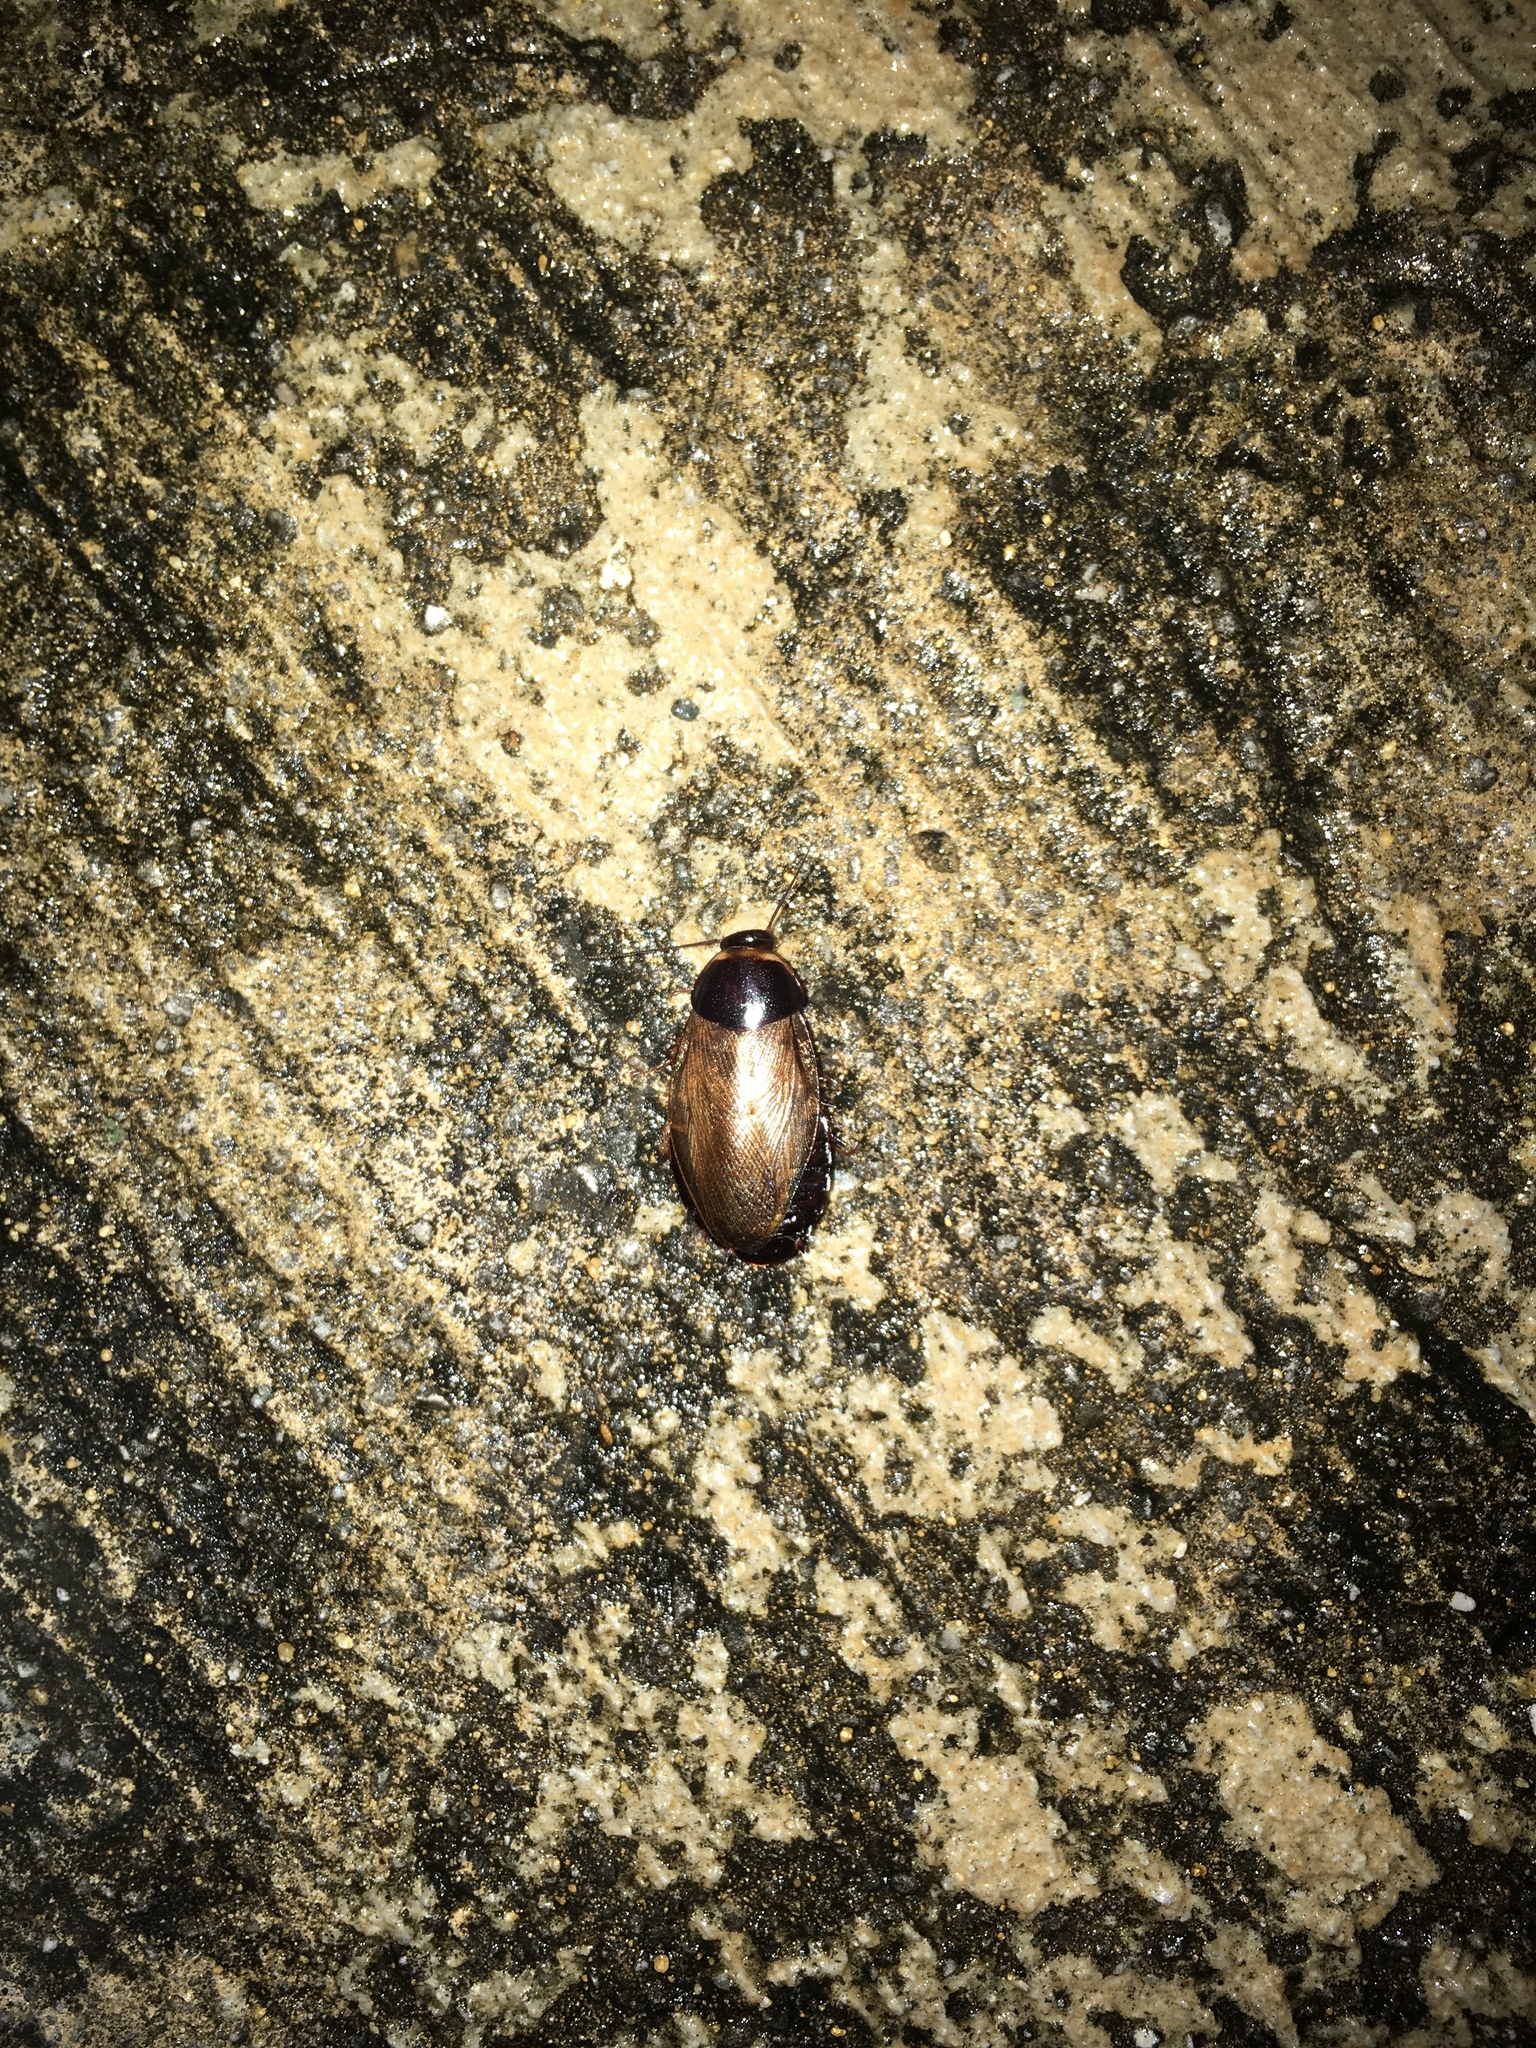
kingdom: Animalia
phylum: Arthropoda
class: Insecta
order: Blattodea
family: Blaberidae
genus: Pycnoscelus
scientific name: Pycnoscelus surinamensis
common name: Surinam cockroach
